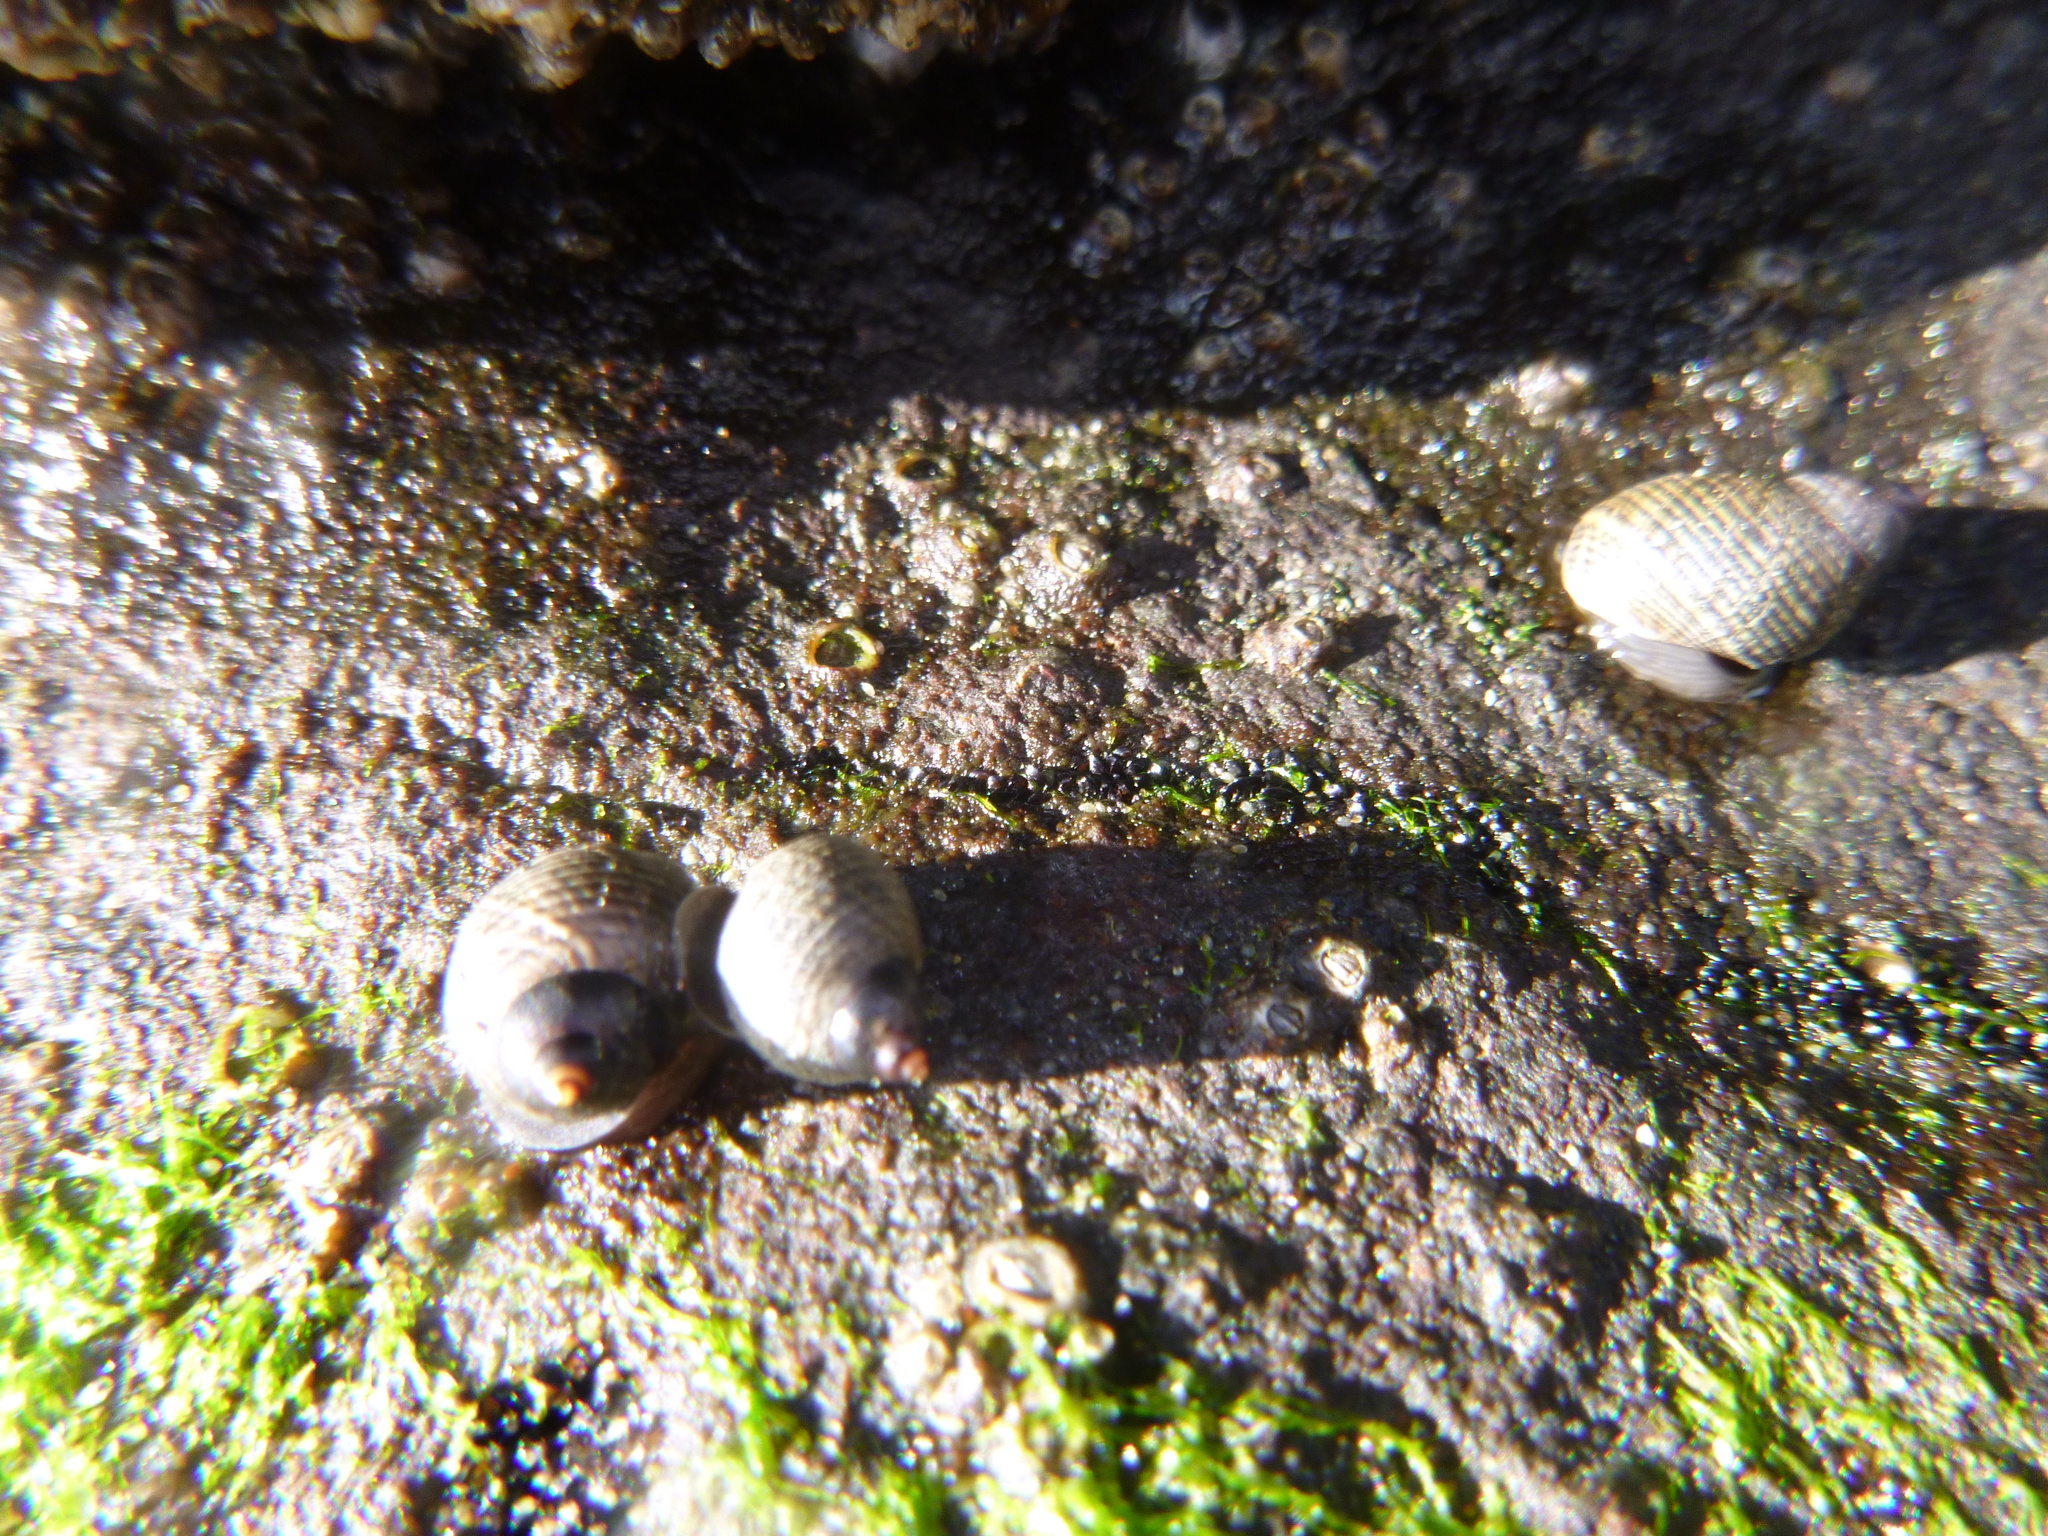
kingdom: Animalia
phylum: Mollusca
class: Gastropoda
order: Littorinimorpha
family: Littorinidae
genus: Austrolittorina
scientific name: Austrolittorina cincta
